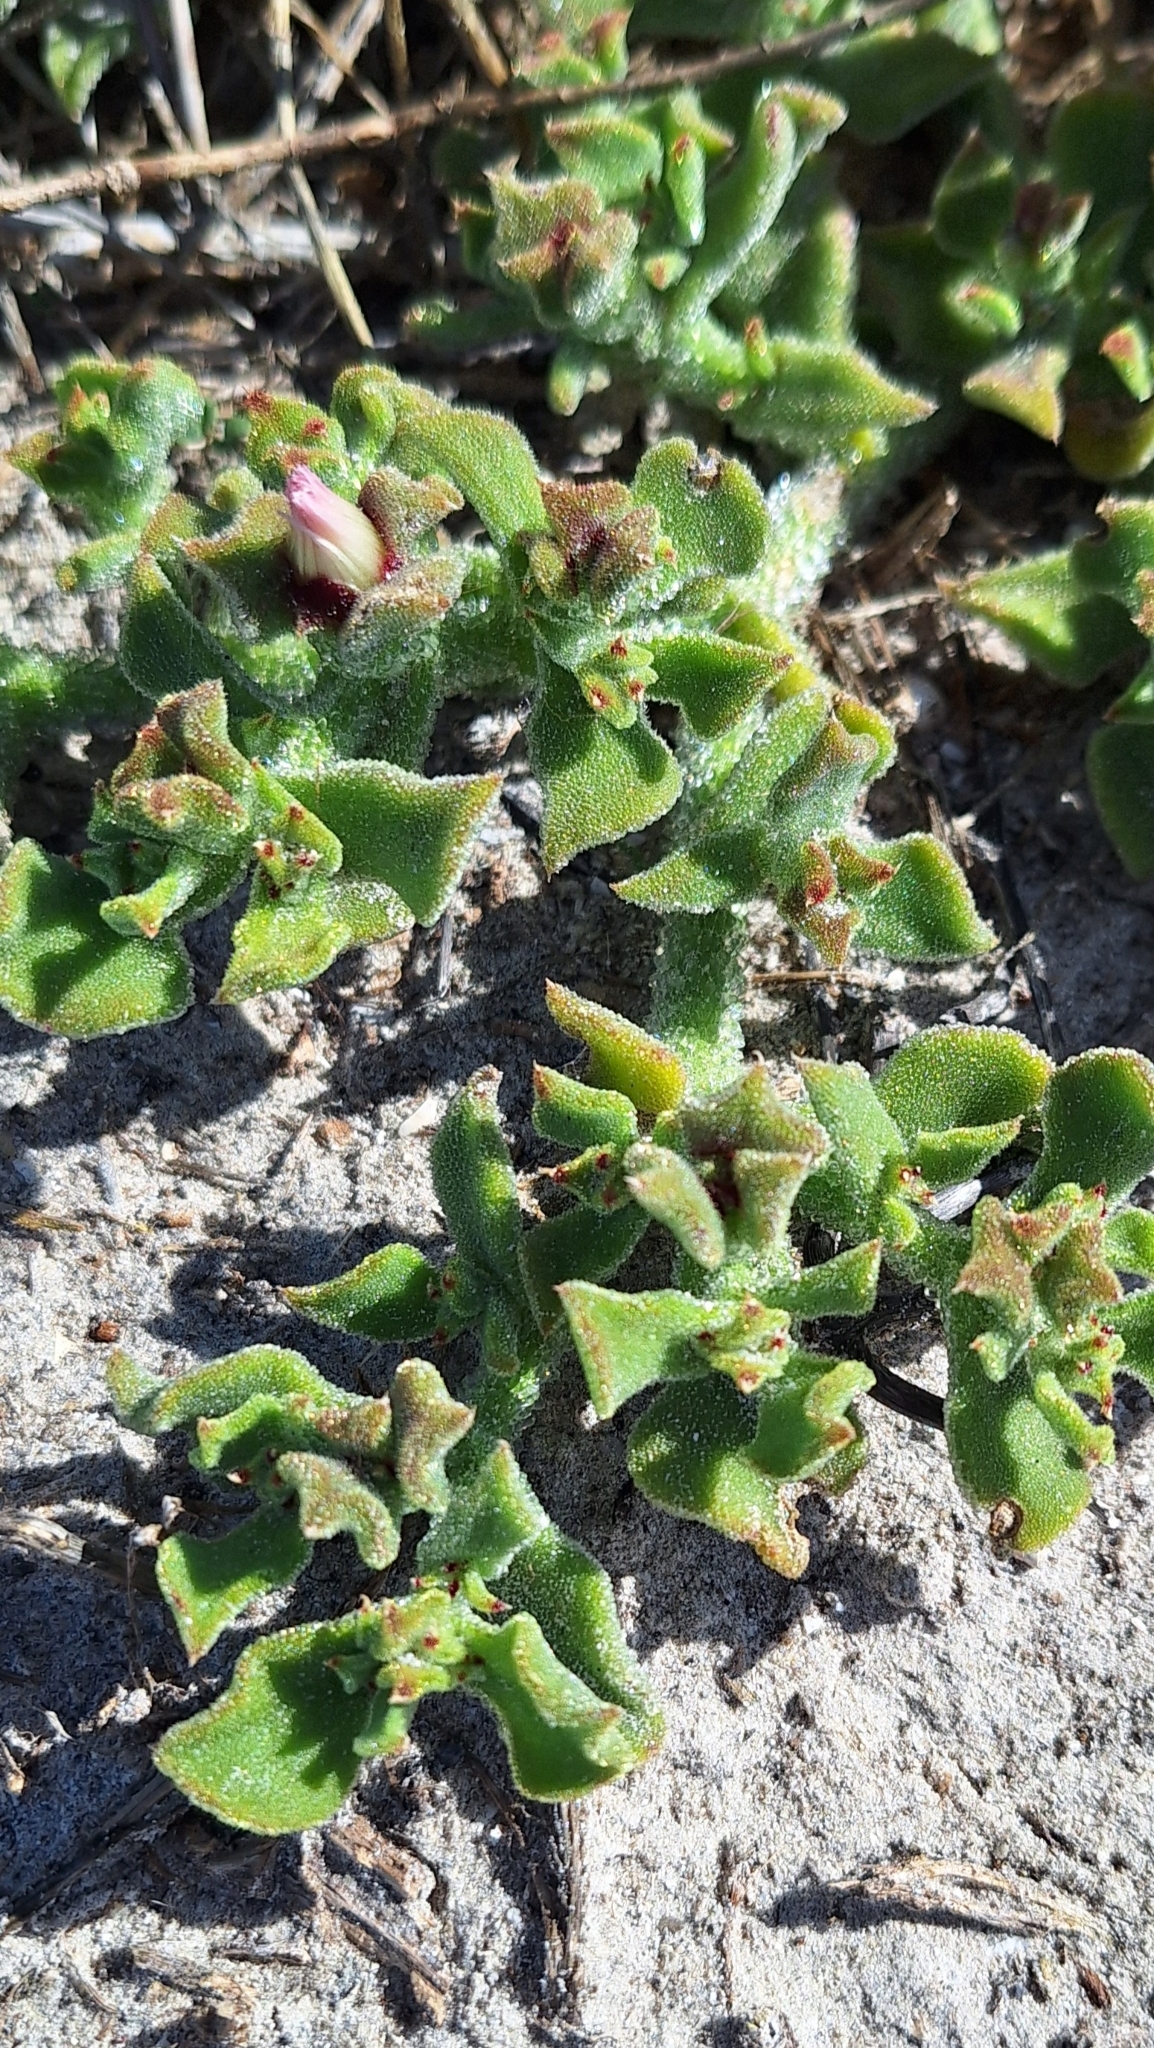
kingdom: Plantae
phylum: Tracheophyta
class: Magnoliopsida
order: Caryophyllales
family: Aizoaceae
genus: Mesembryanthemum
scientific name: Mesembryanthemum crystallinum
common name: Common iceplant
